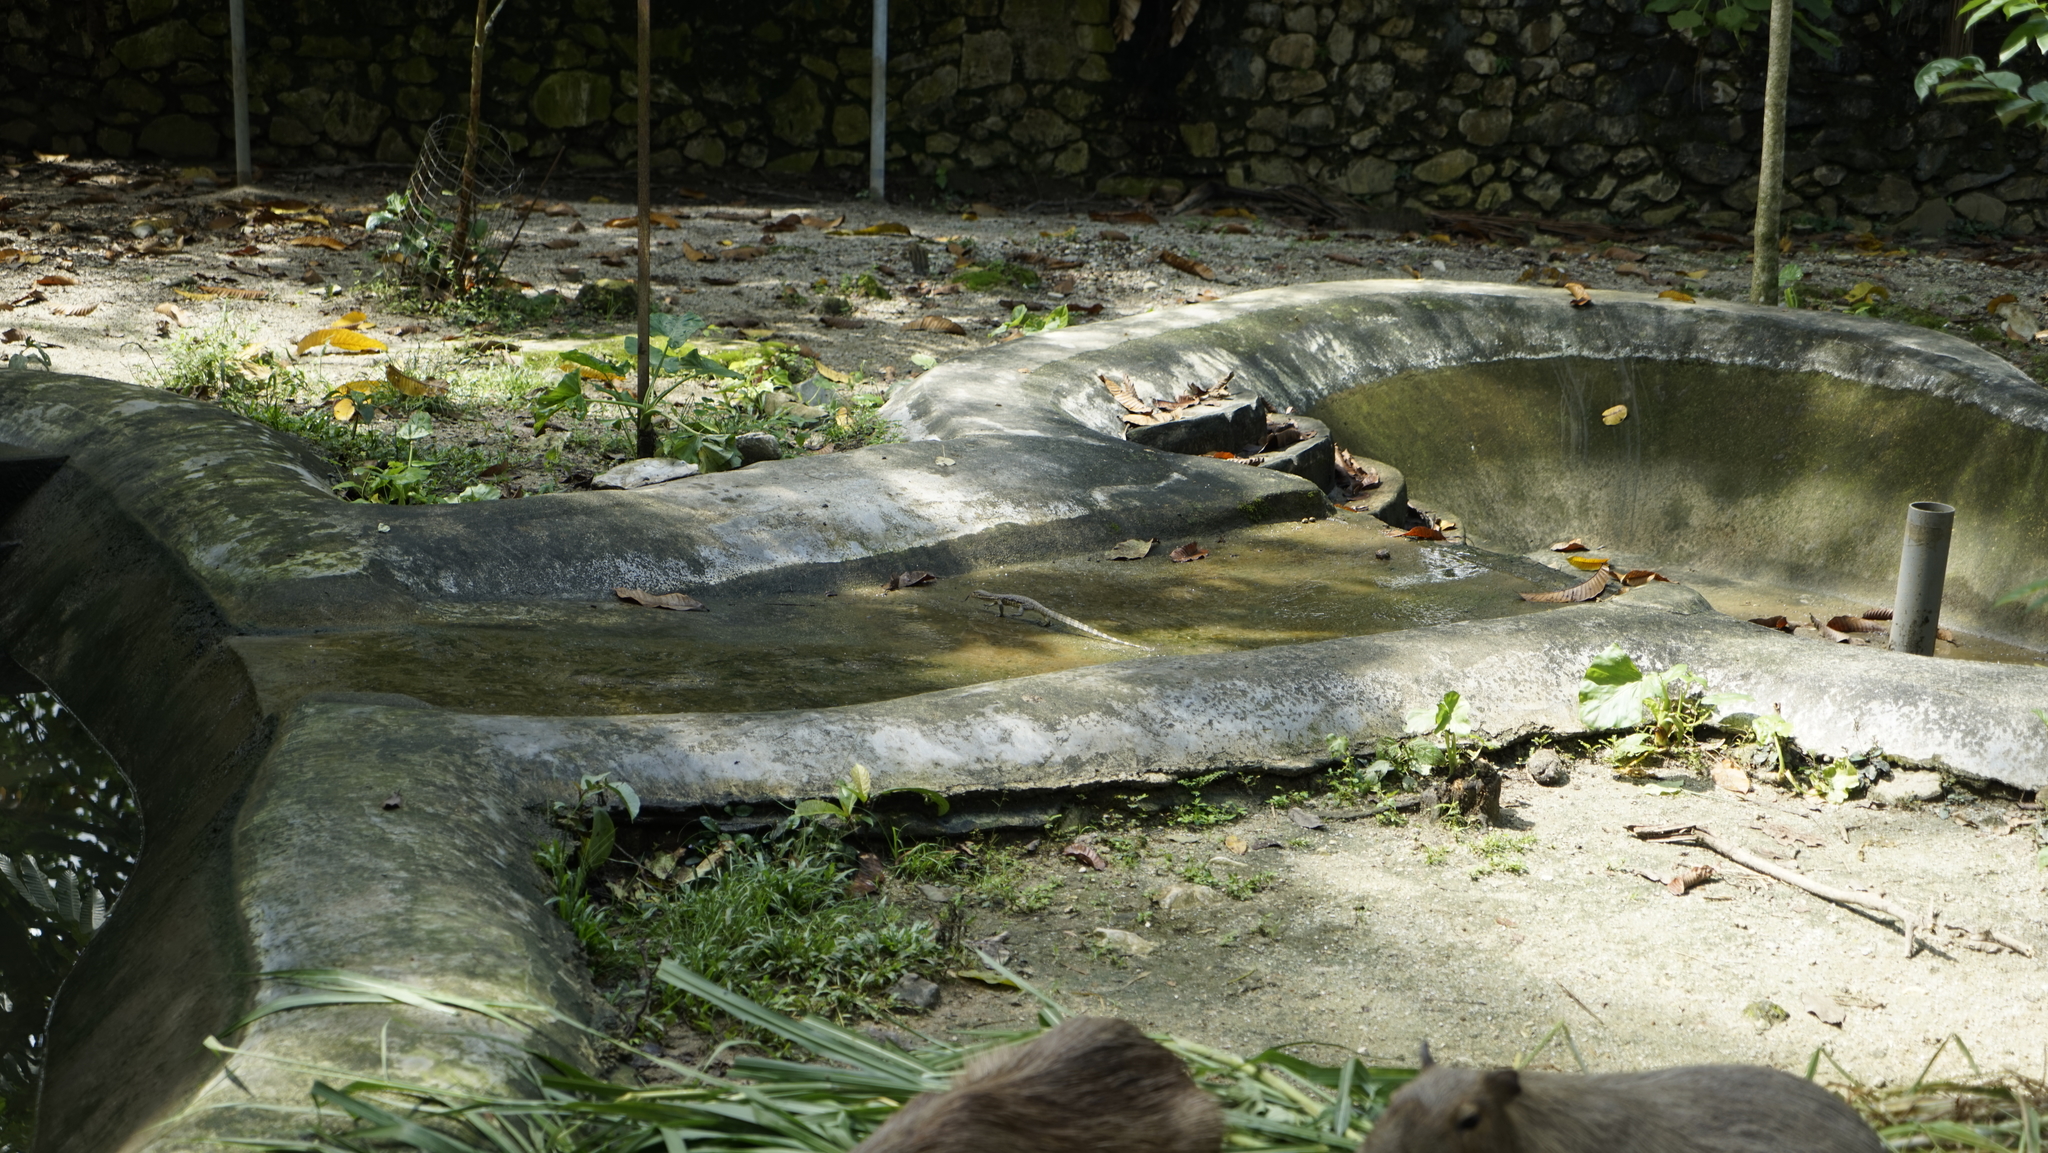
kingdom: Animalia
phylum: Chordata
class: Squamata
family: Varanidae
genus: Varanus
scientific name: Varanus salvator
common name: Common water monitor
